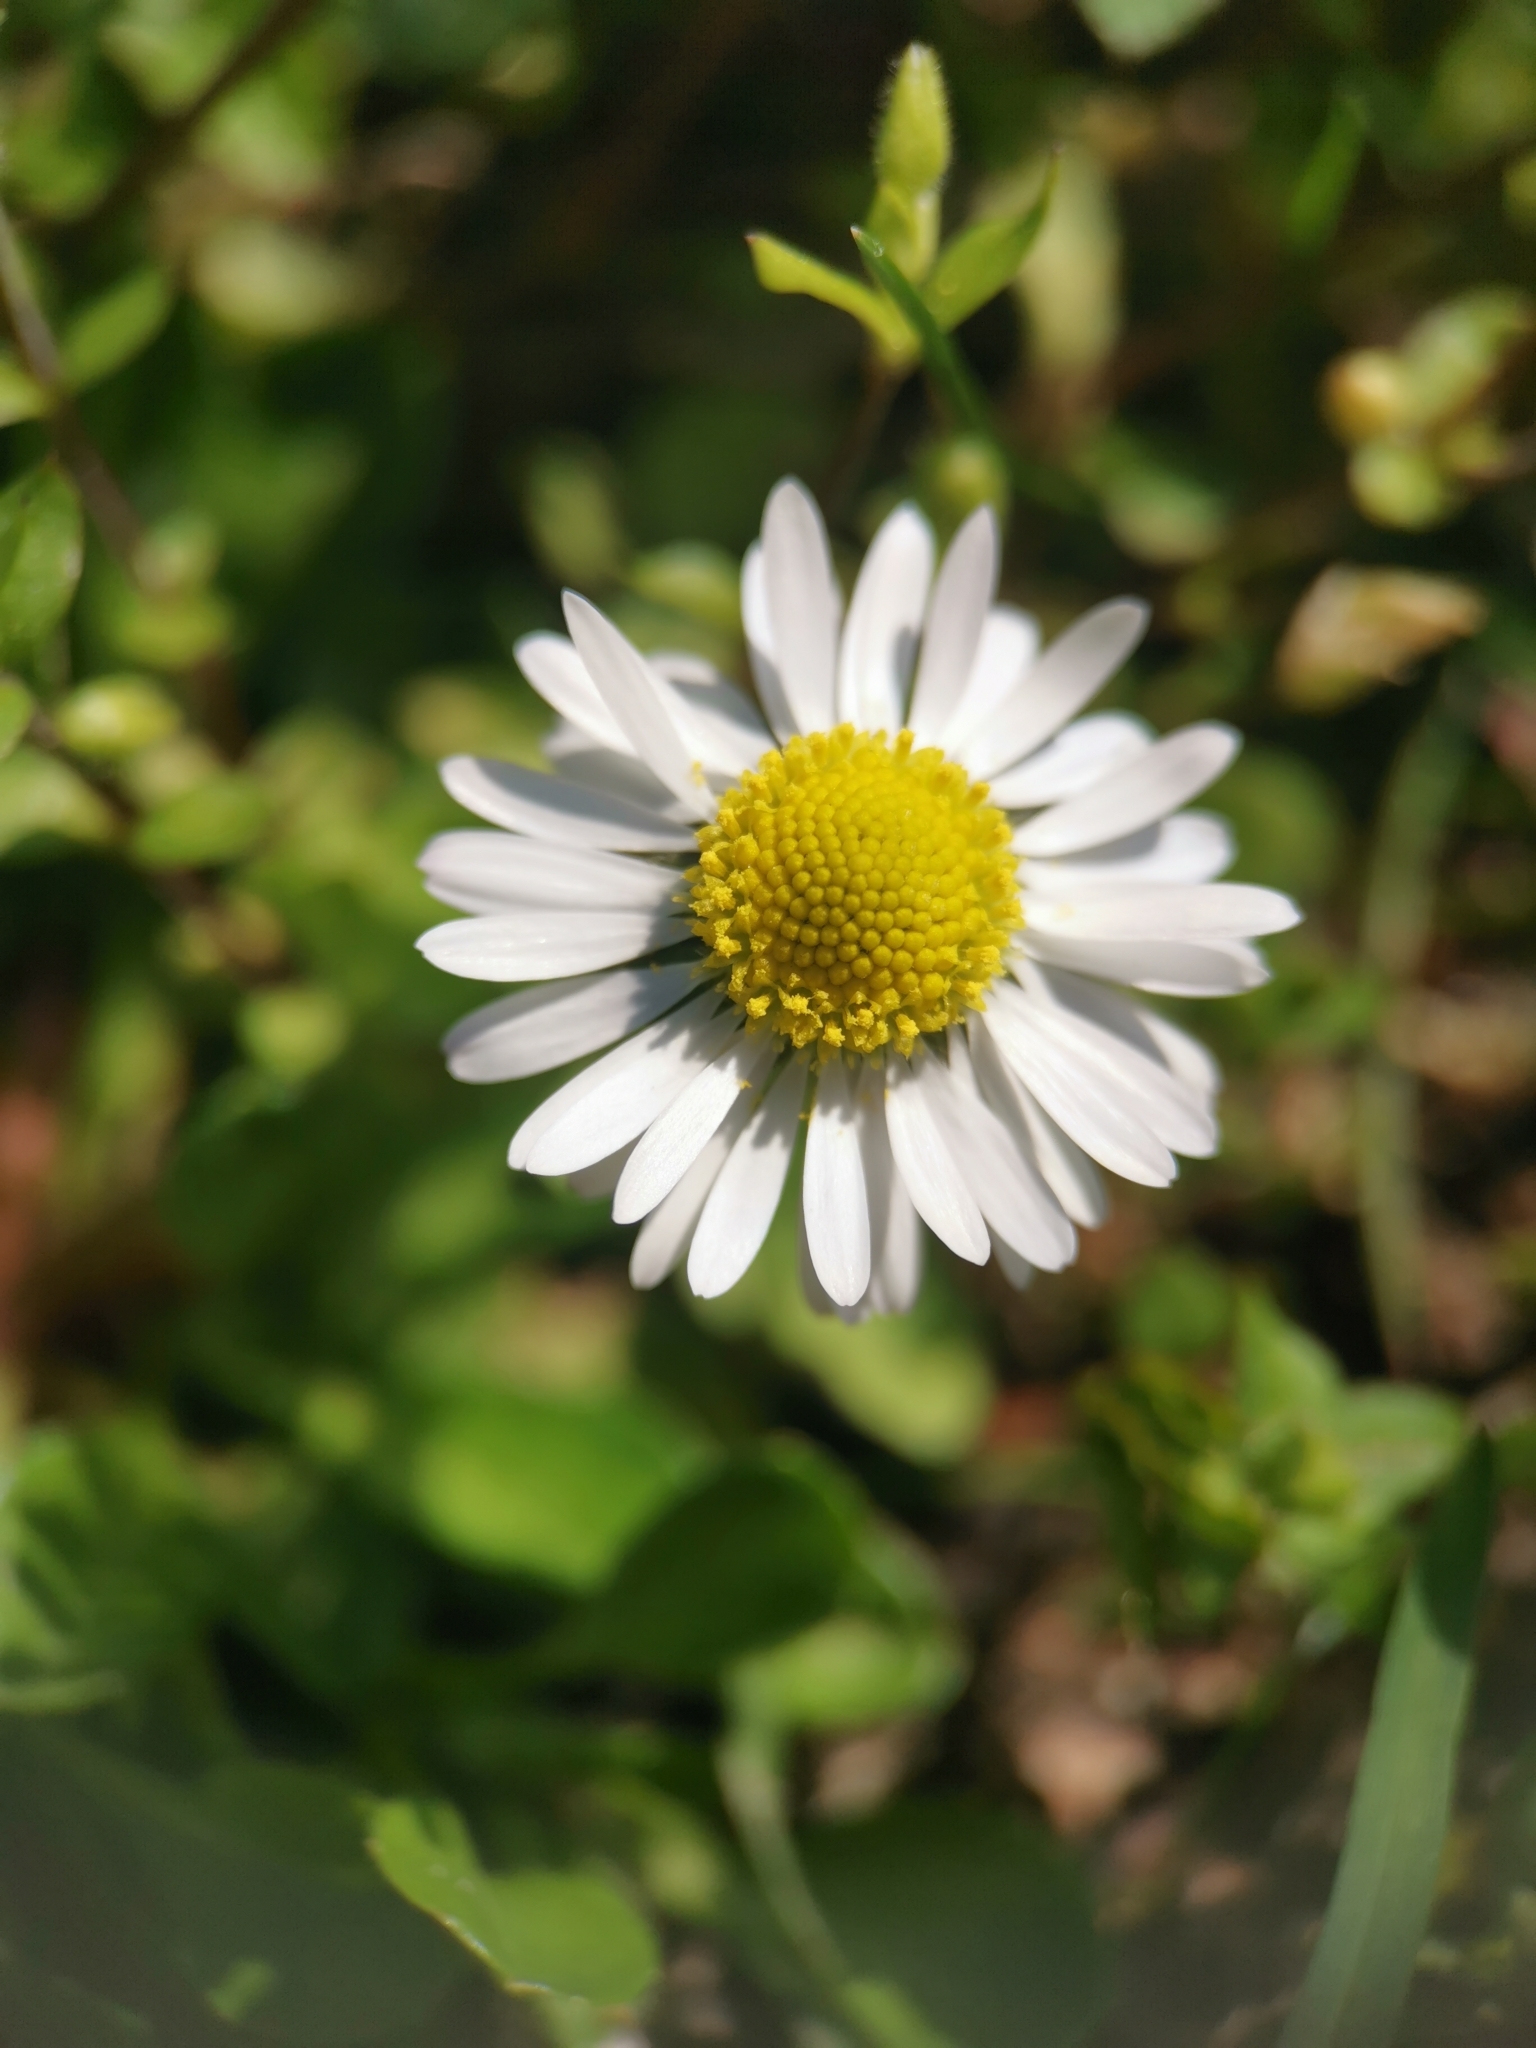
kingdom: Plantae
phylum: Tracheophyta
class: Magnoliopsida
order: Asterales
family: Asteraceae
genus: Bellis
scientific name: Bellis perennis
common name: Lawndaisy
